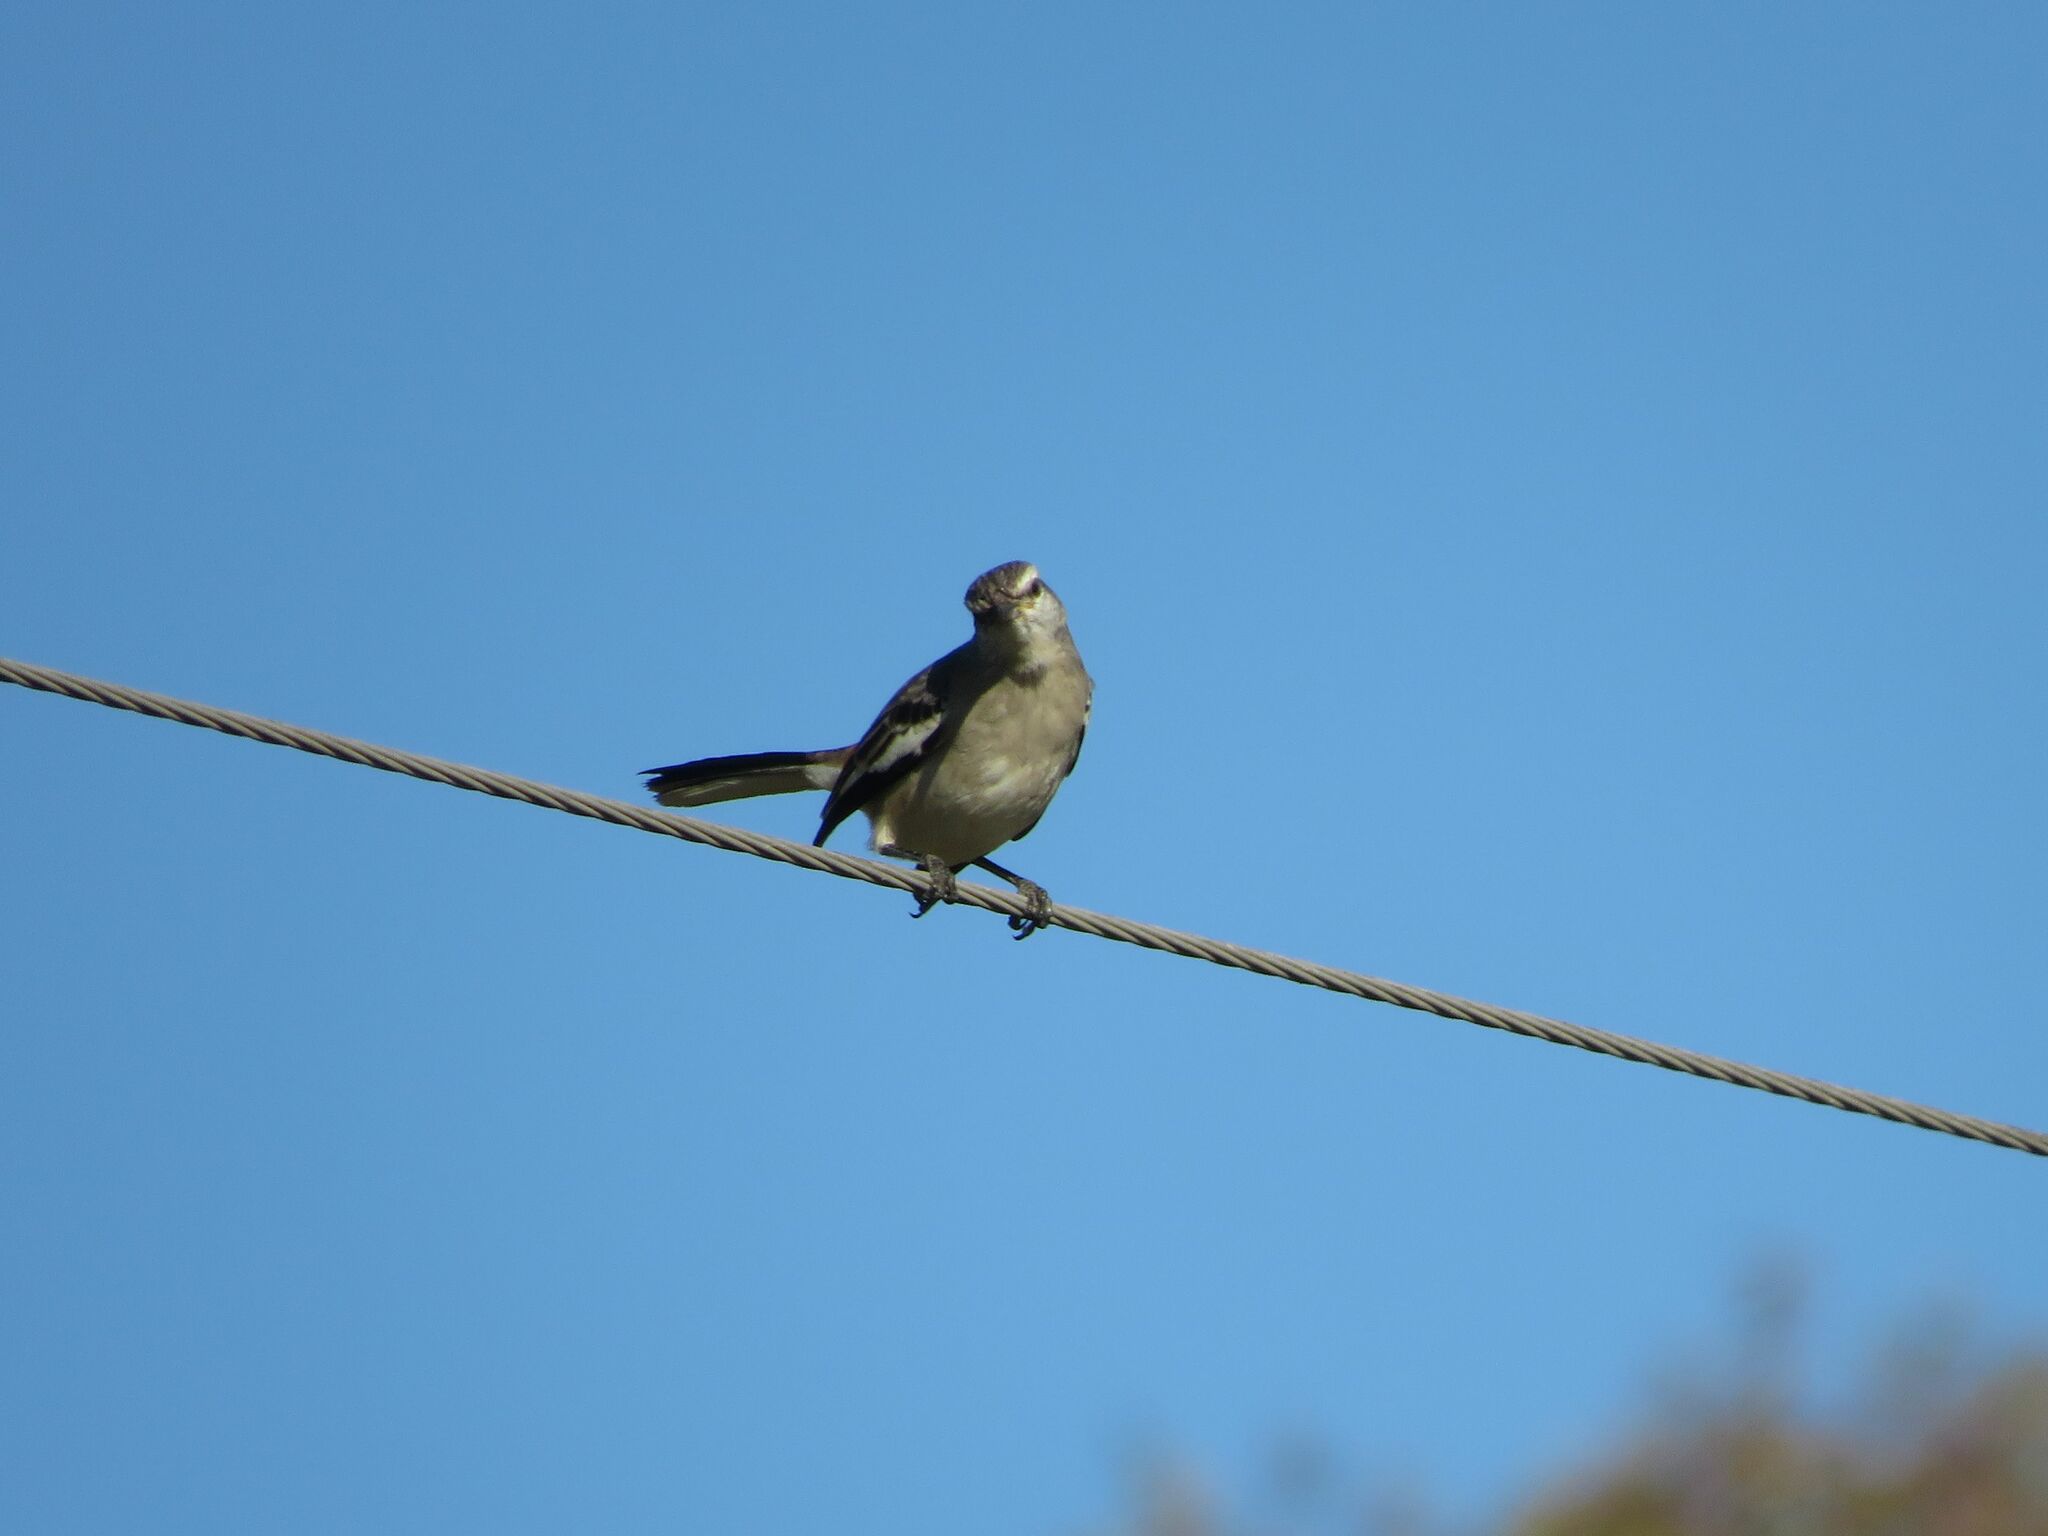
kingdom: Animalia
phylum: Chordata
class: Aves
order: Passeriformes
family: Mimidae
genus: Mimus
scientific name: Mimus triurus
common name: White-banded mockingbird
